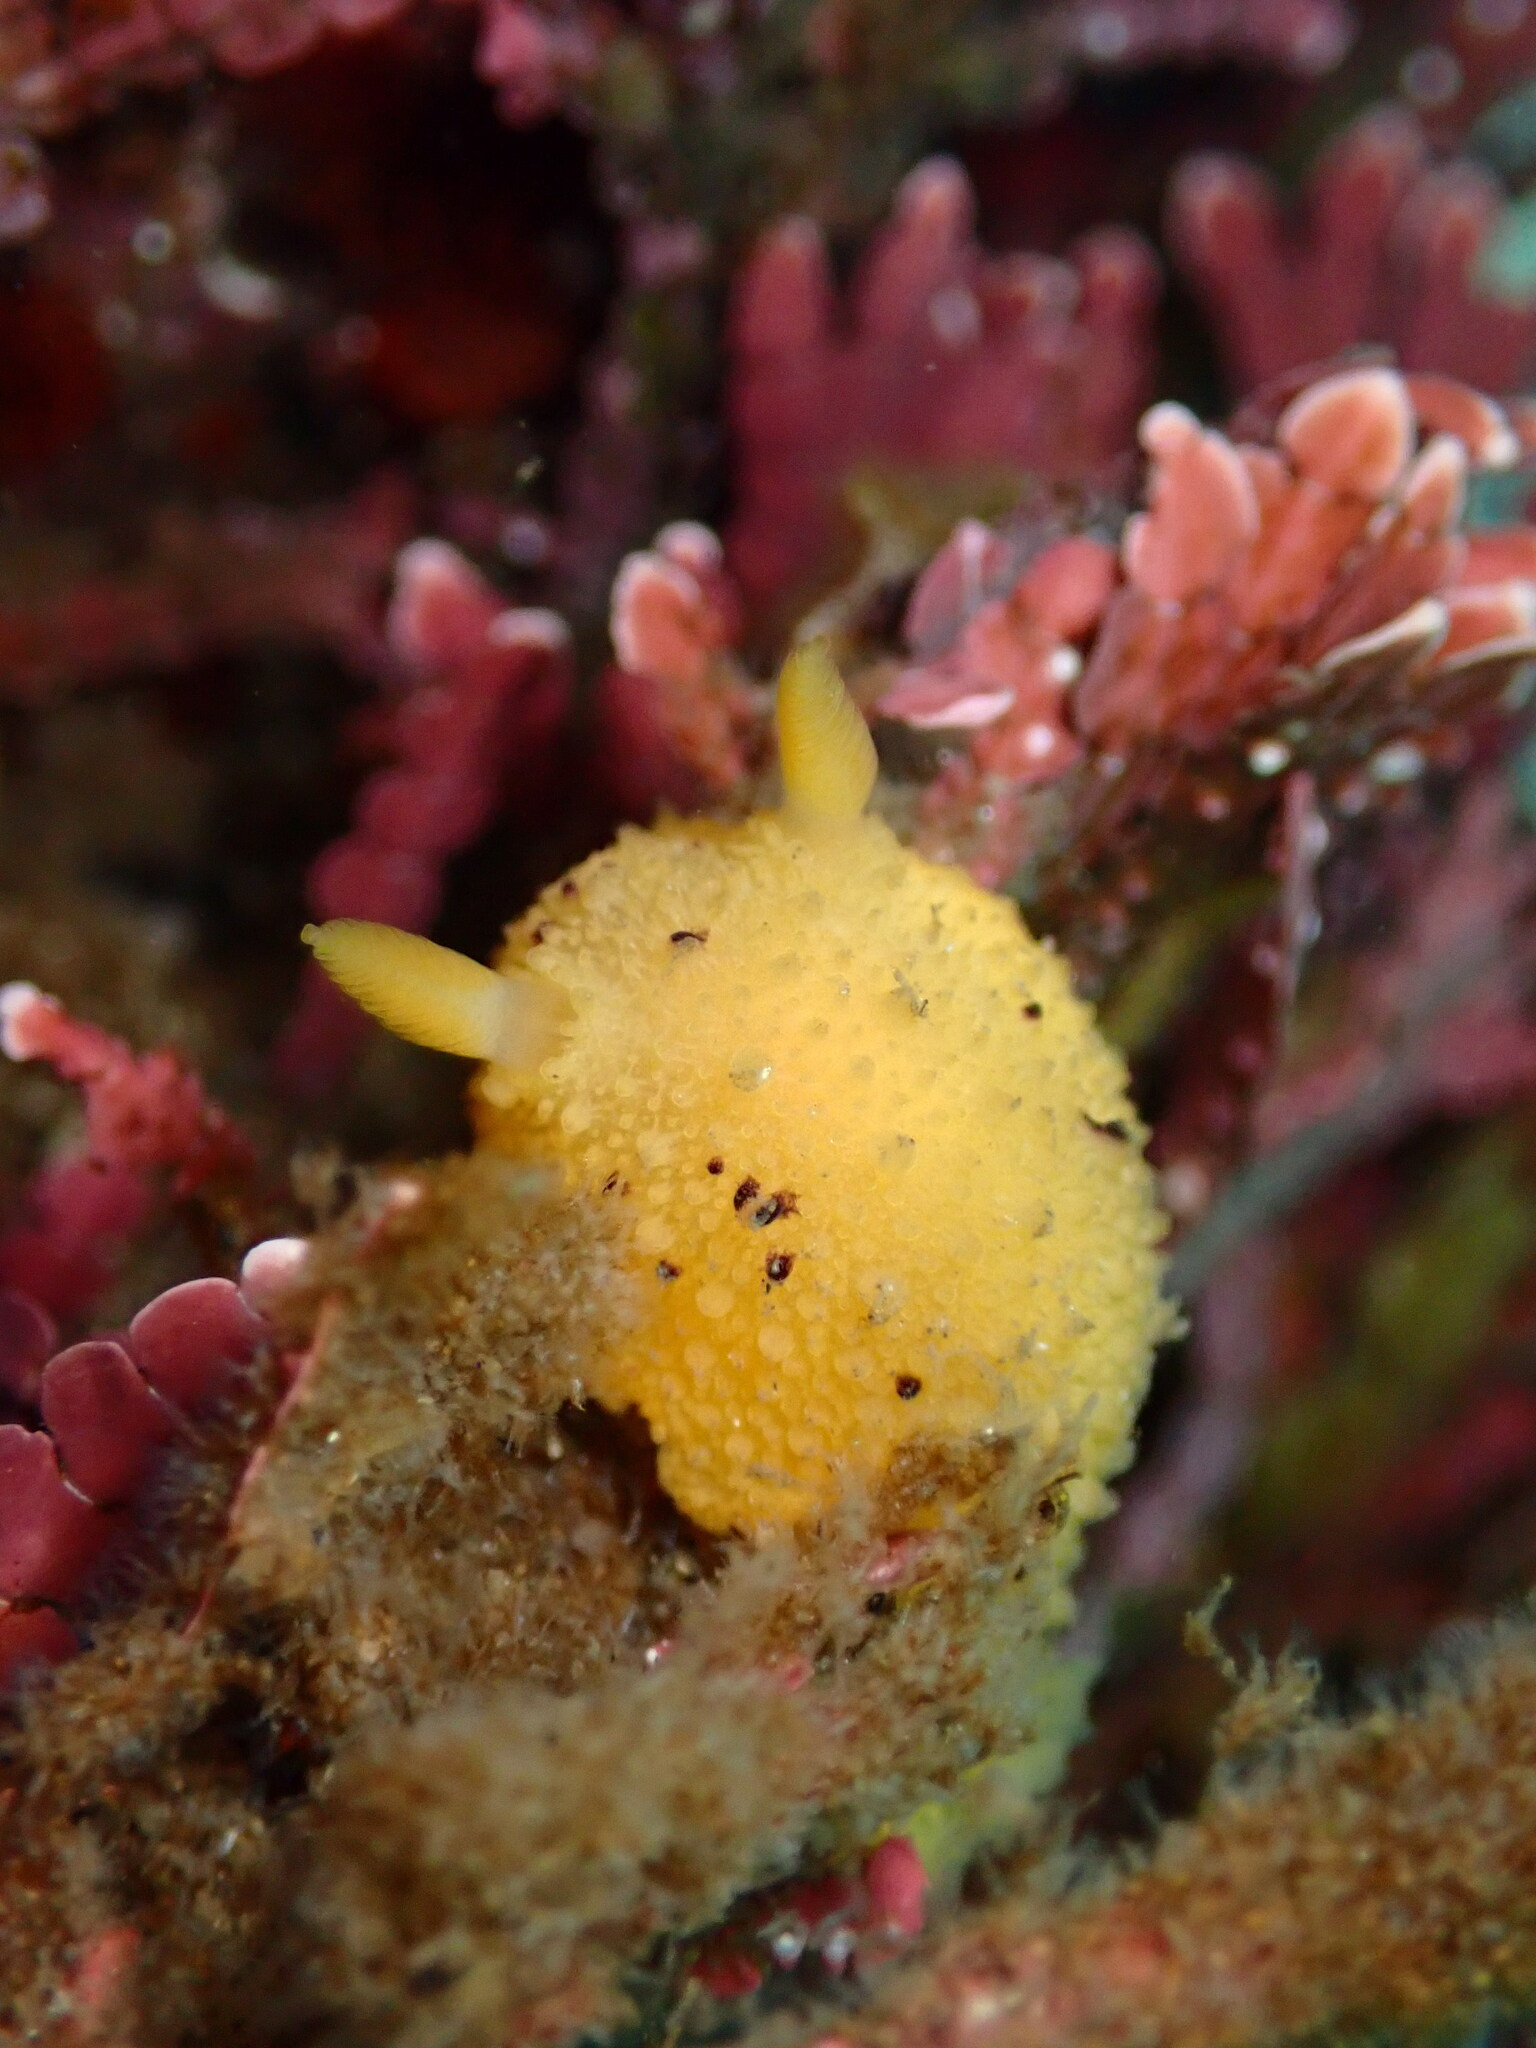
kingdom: Animalia
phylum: Mollusca
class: Gastropoda
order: Nudibranchia
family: Dorididae
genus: Doris
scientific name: Doris montereyensis
